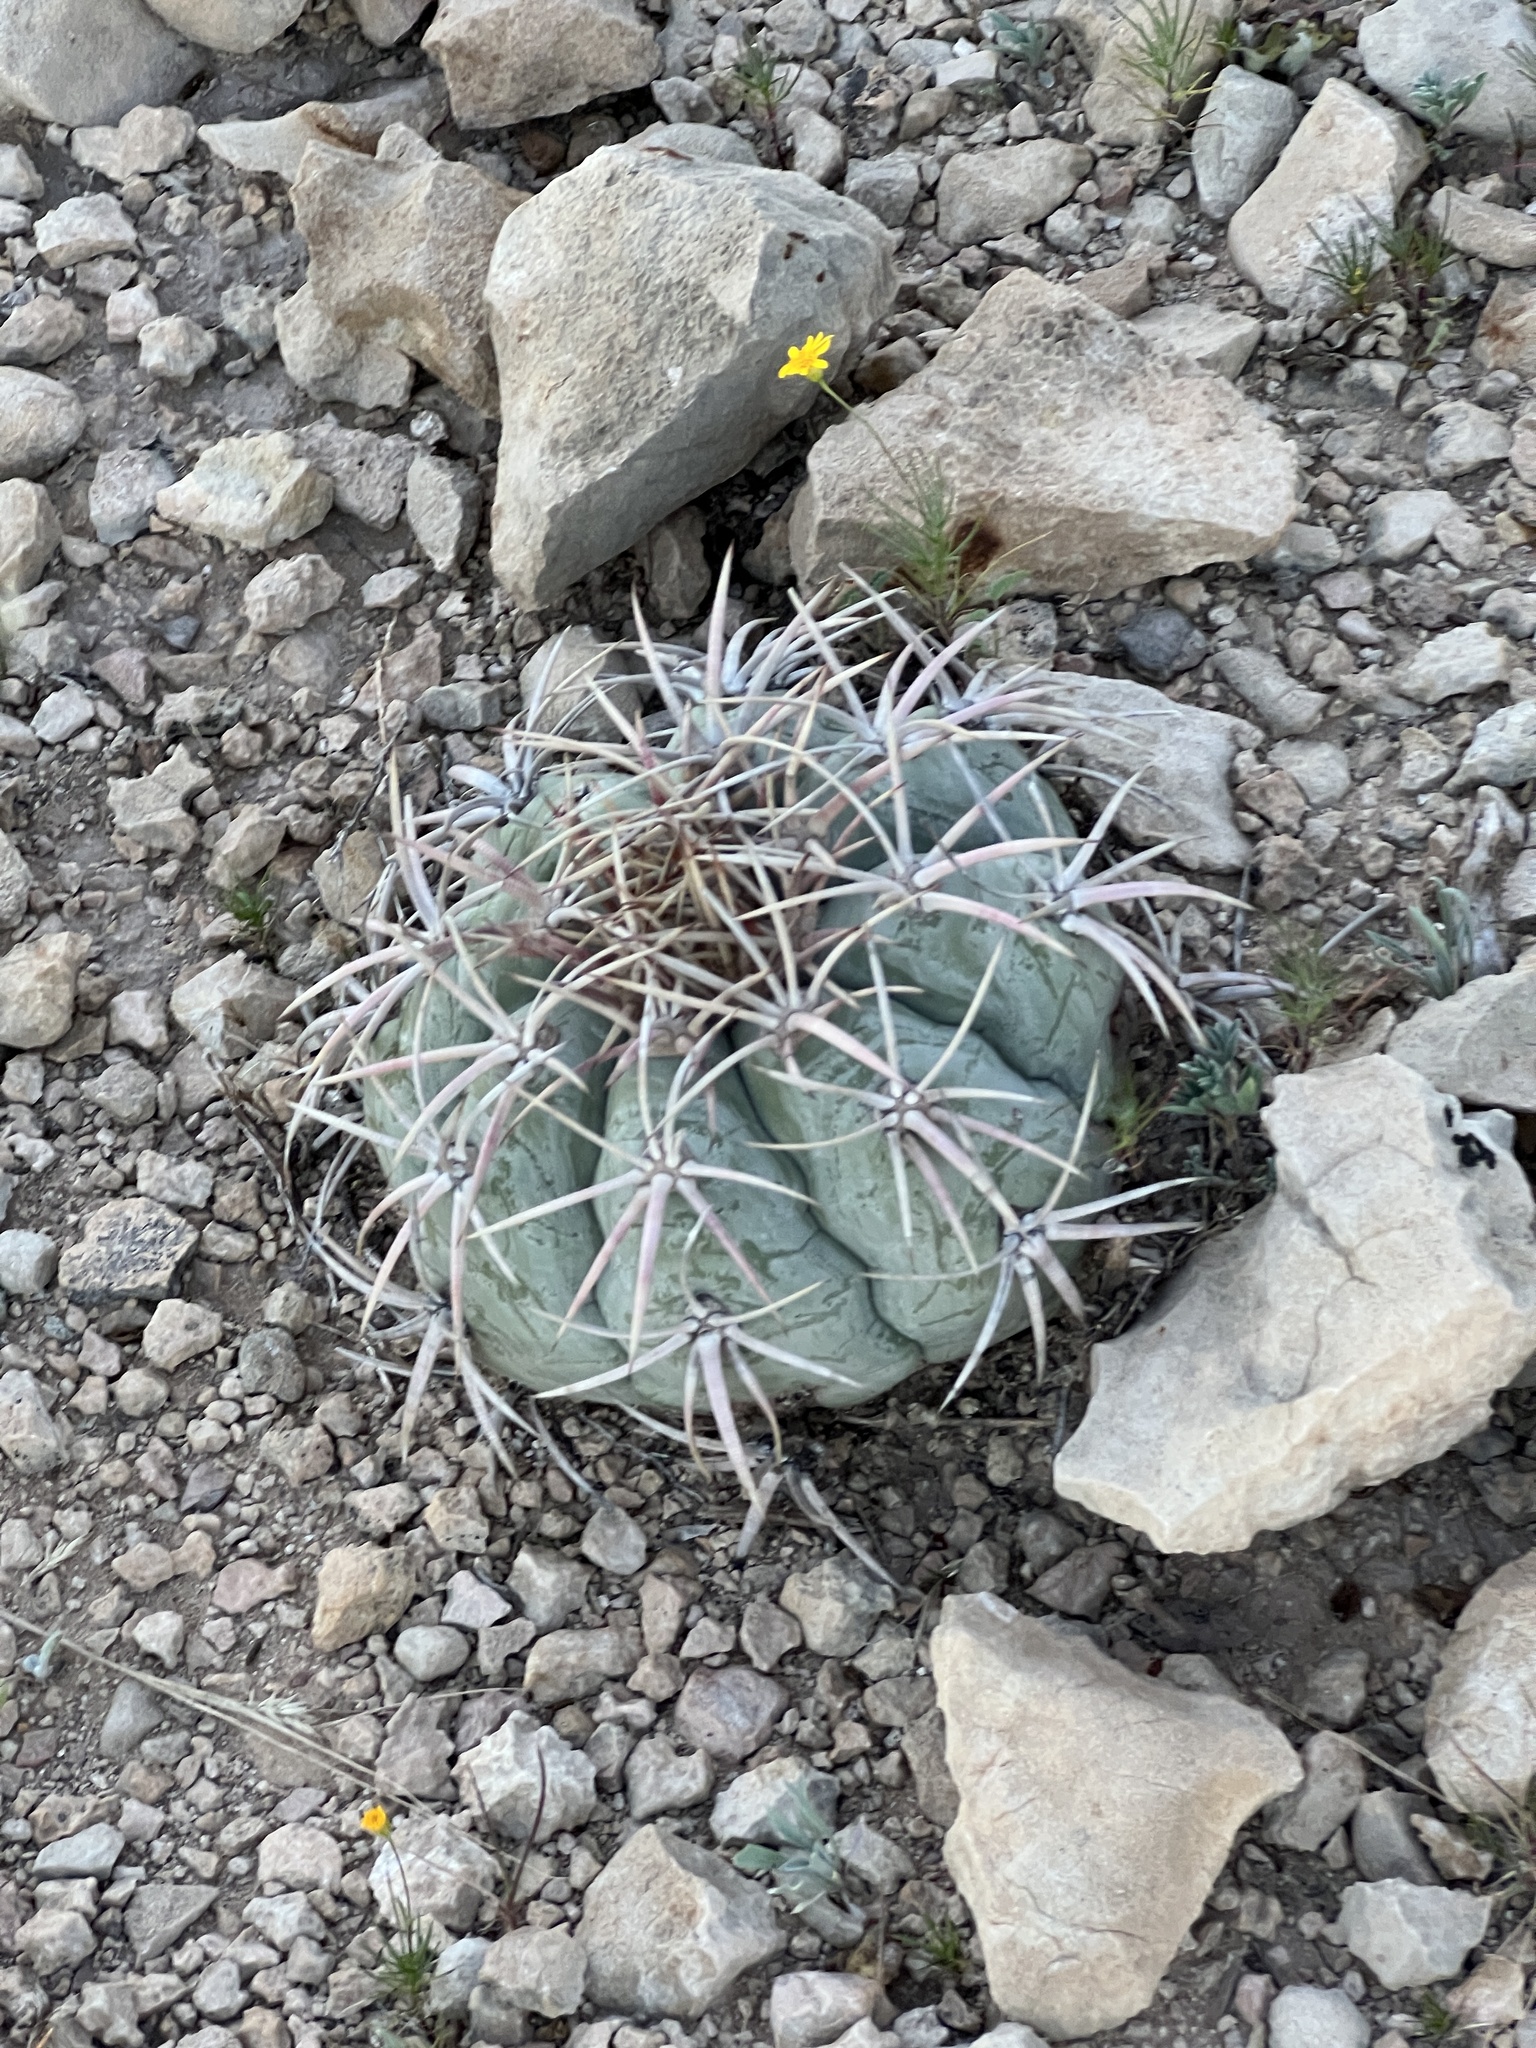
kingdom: Plantae
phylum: Tracheophyta
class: Magnoliopsida
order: Caryophyllales
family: Cactaceae
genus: Echinocactus
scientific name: Echinocactus horizonthalonius
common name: Devilshead
